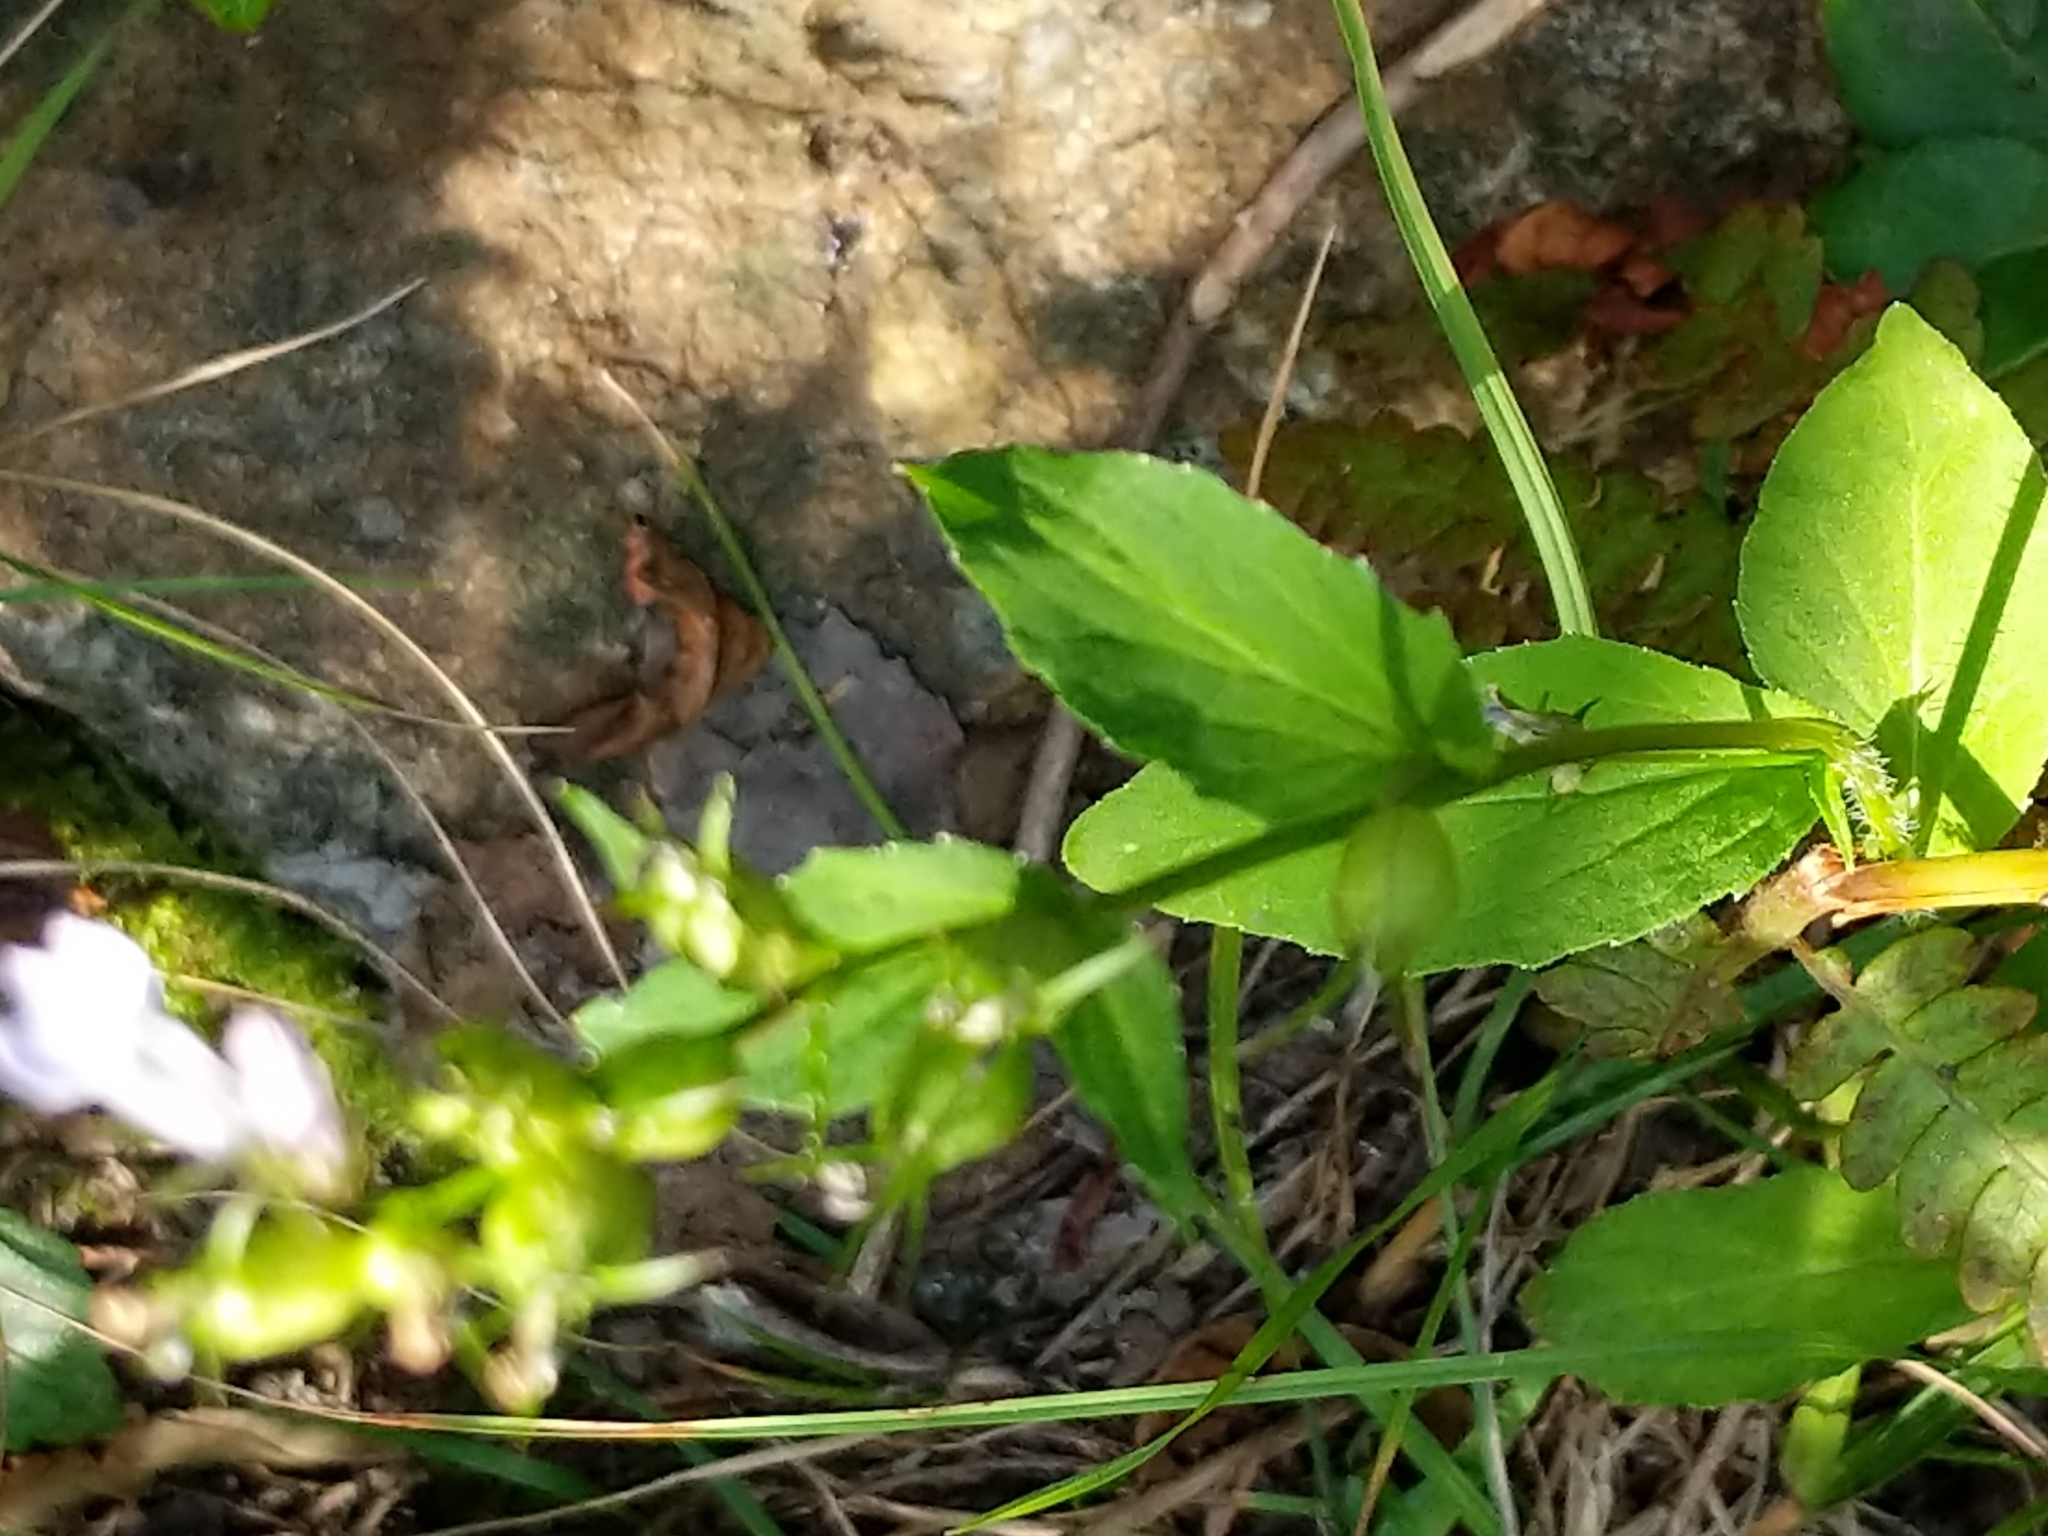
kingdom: Plantae
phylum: Tracheophyta
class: Magnoliopsida
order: Asterales
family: Campanulaceae
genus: Lobelia
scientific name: Lobelia inflata
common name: Indian tobacco
